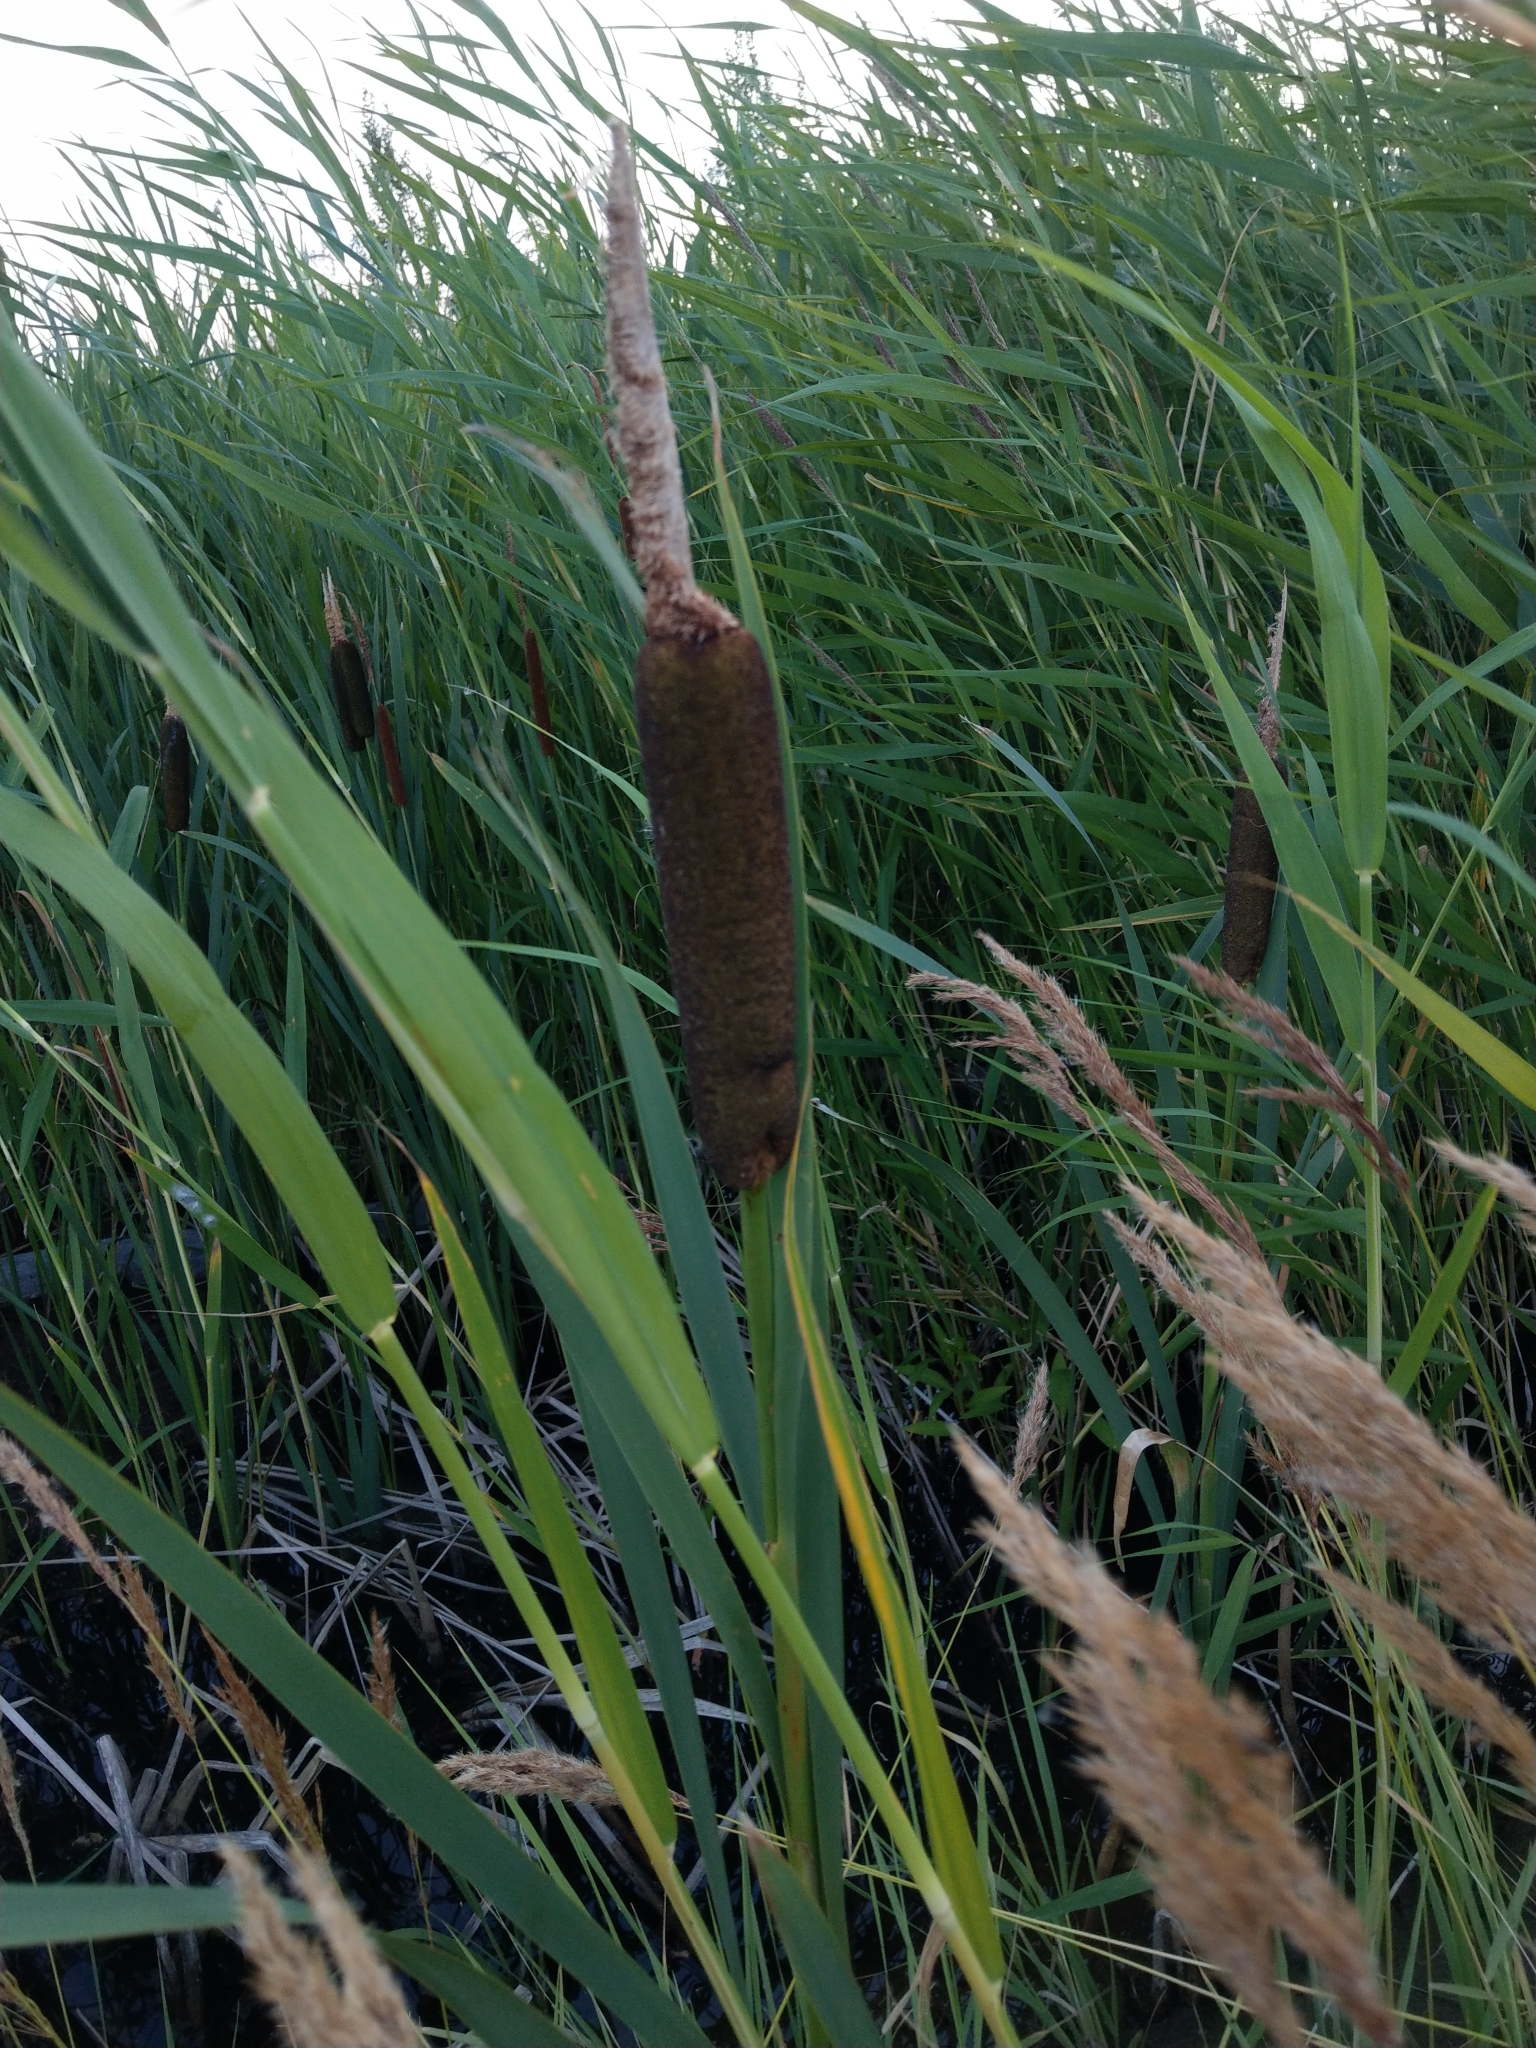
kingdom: Plantae
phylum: Tracheophyta
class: Liliopsida
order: Poales
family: Typhaceae
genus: Typha
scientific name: Typha latifolia
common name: Broadleaf cattail
